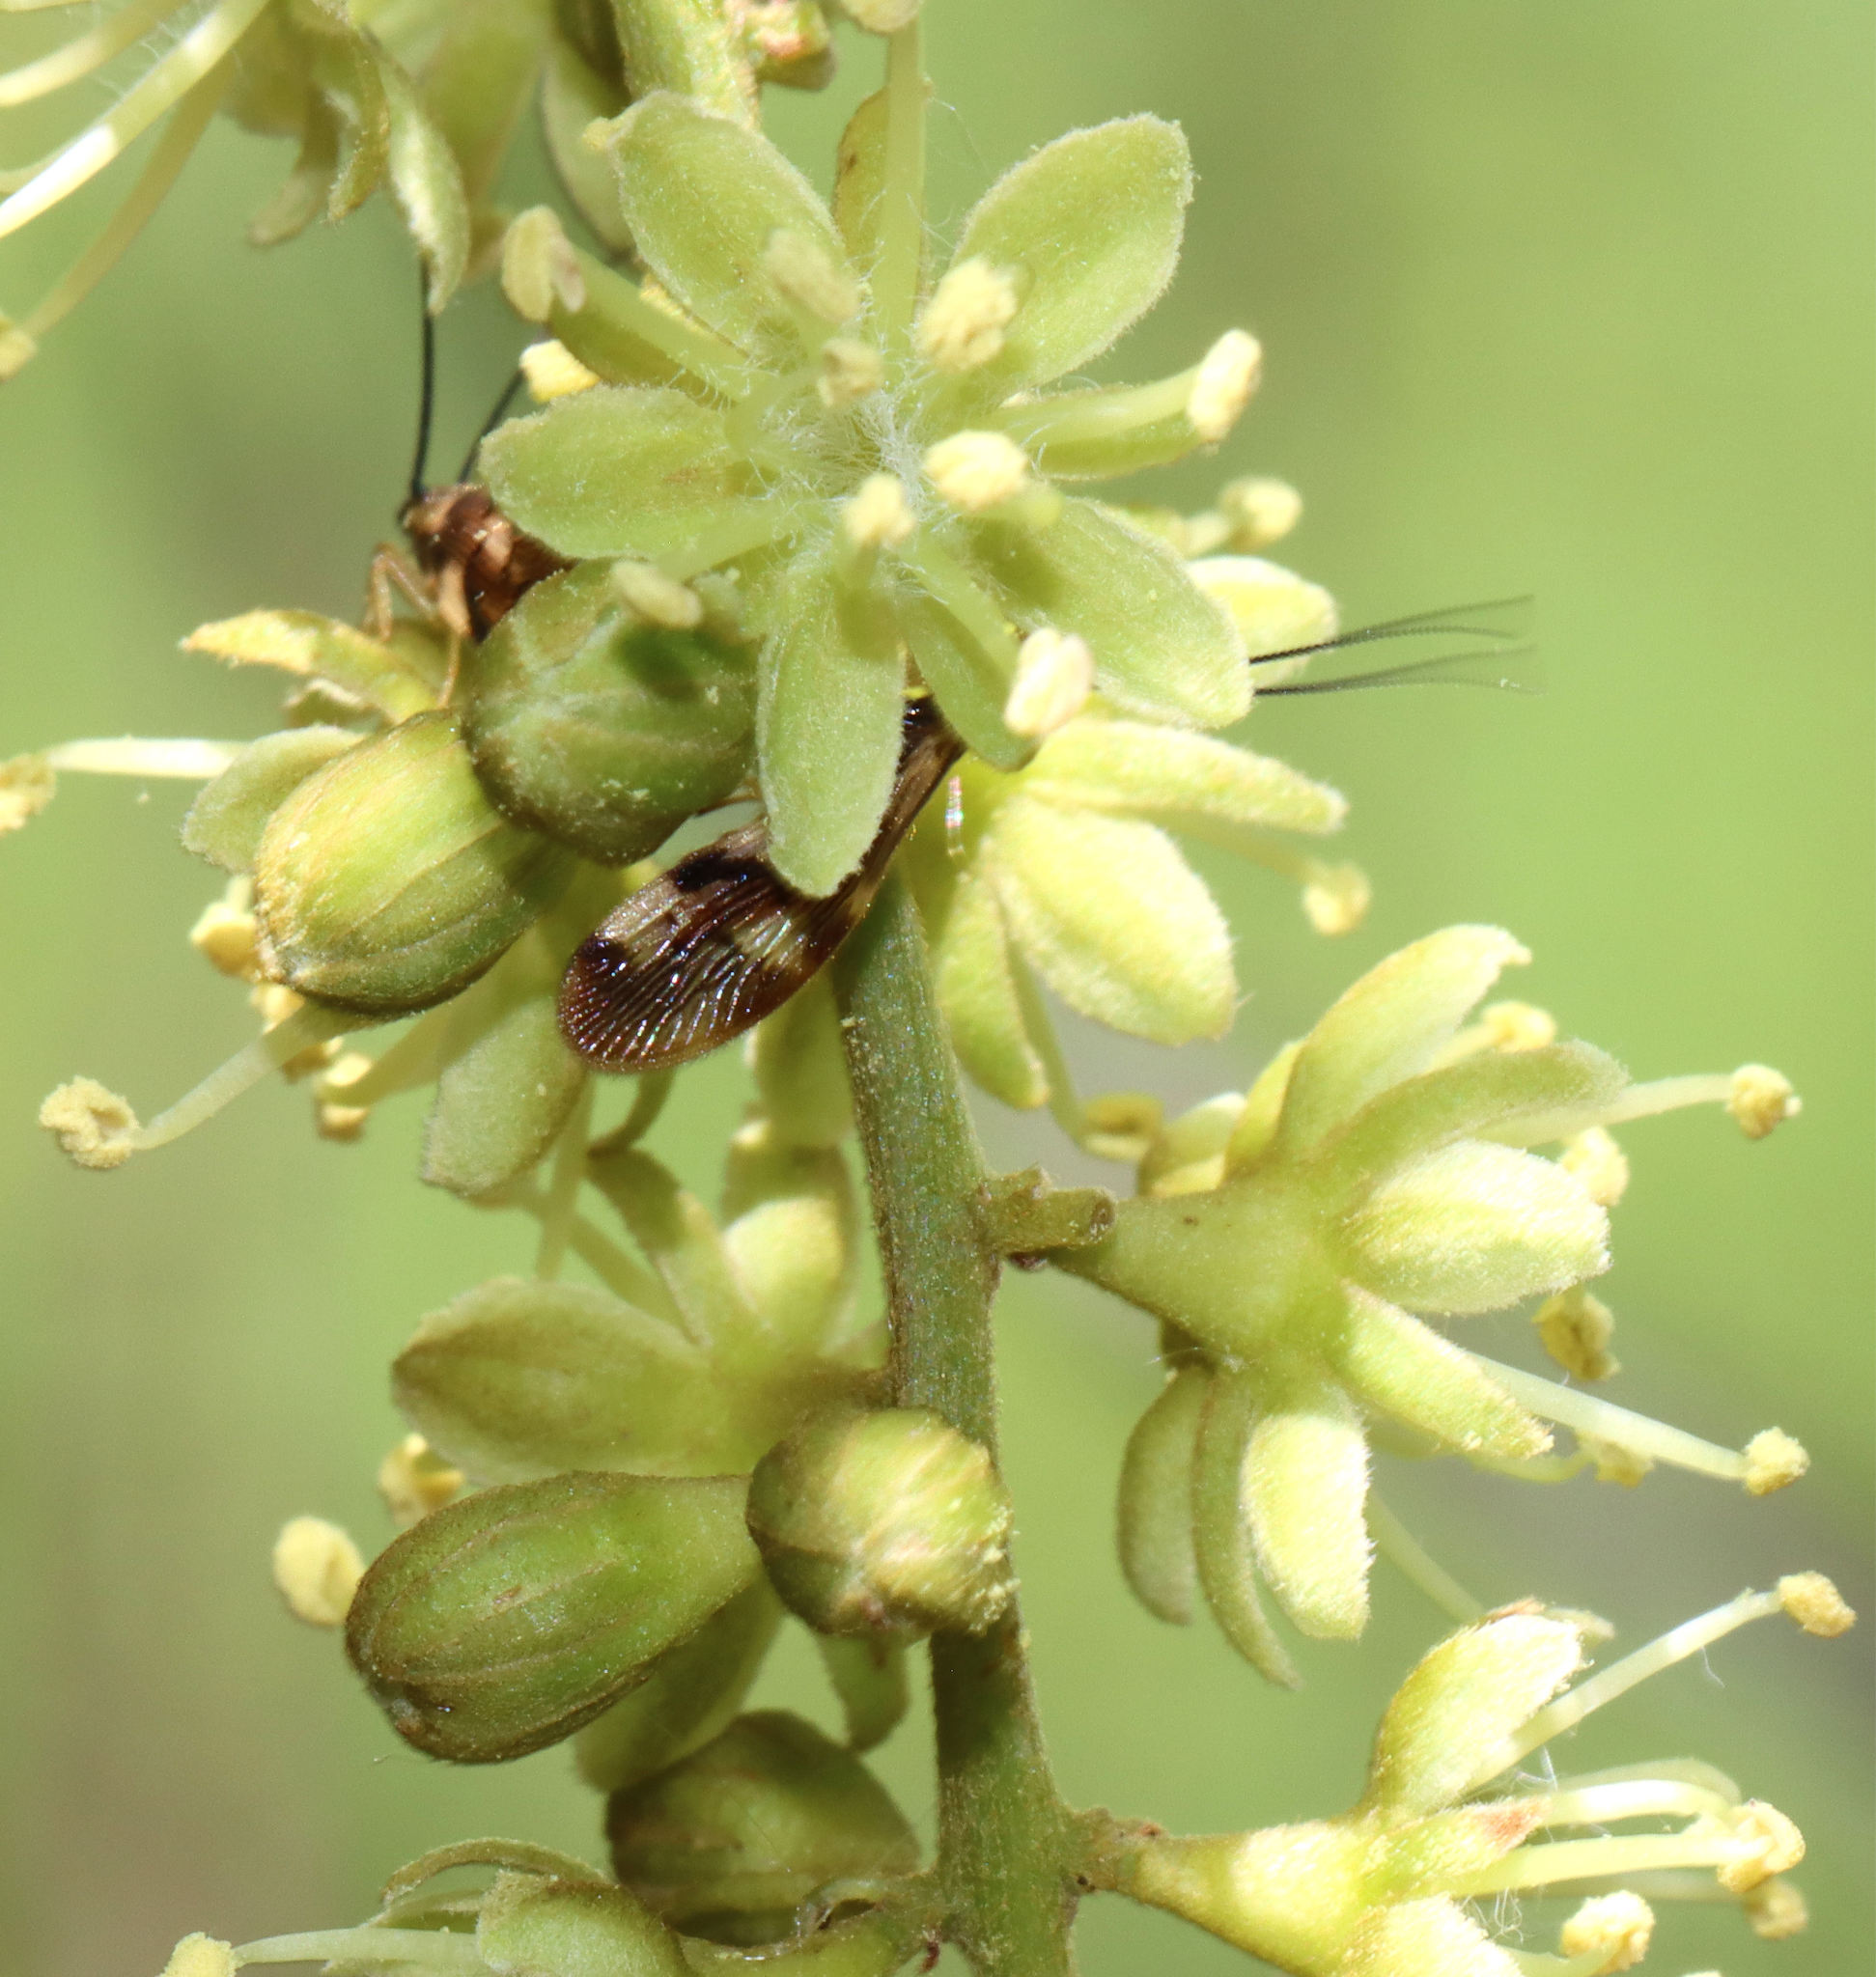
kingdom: Animalia
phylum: Arthropoda
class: Insecta
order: Neuroptera
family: Sisyridae
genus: Climacia
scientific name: Climacia areolaris
